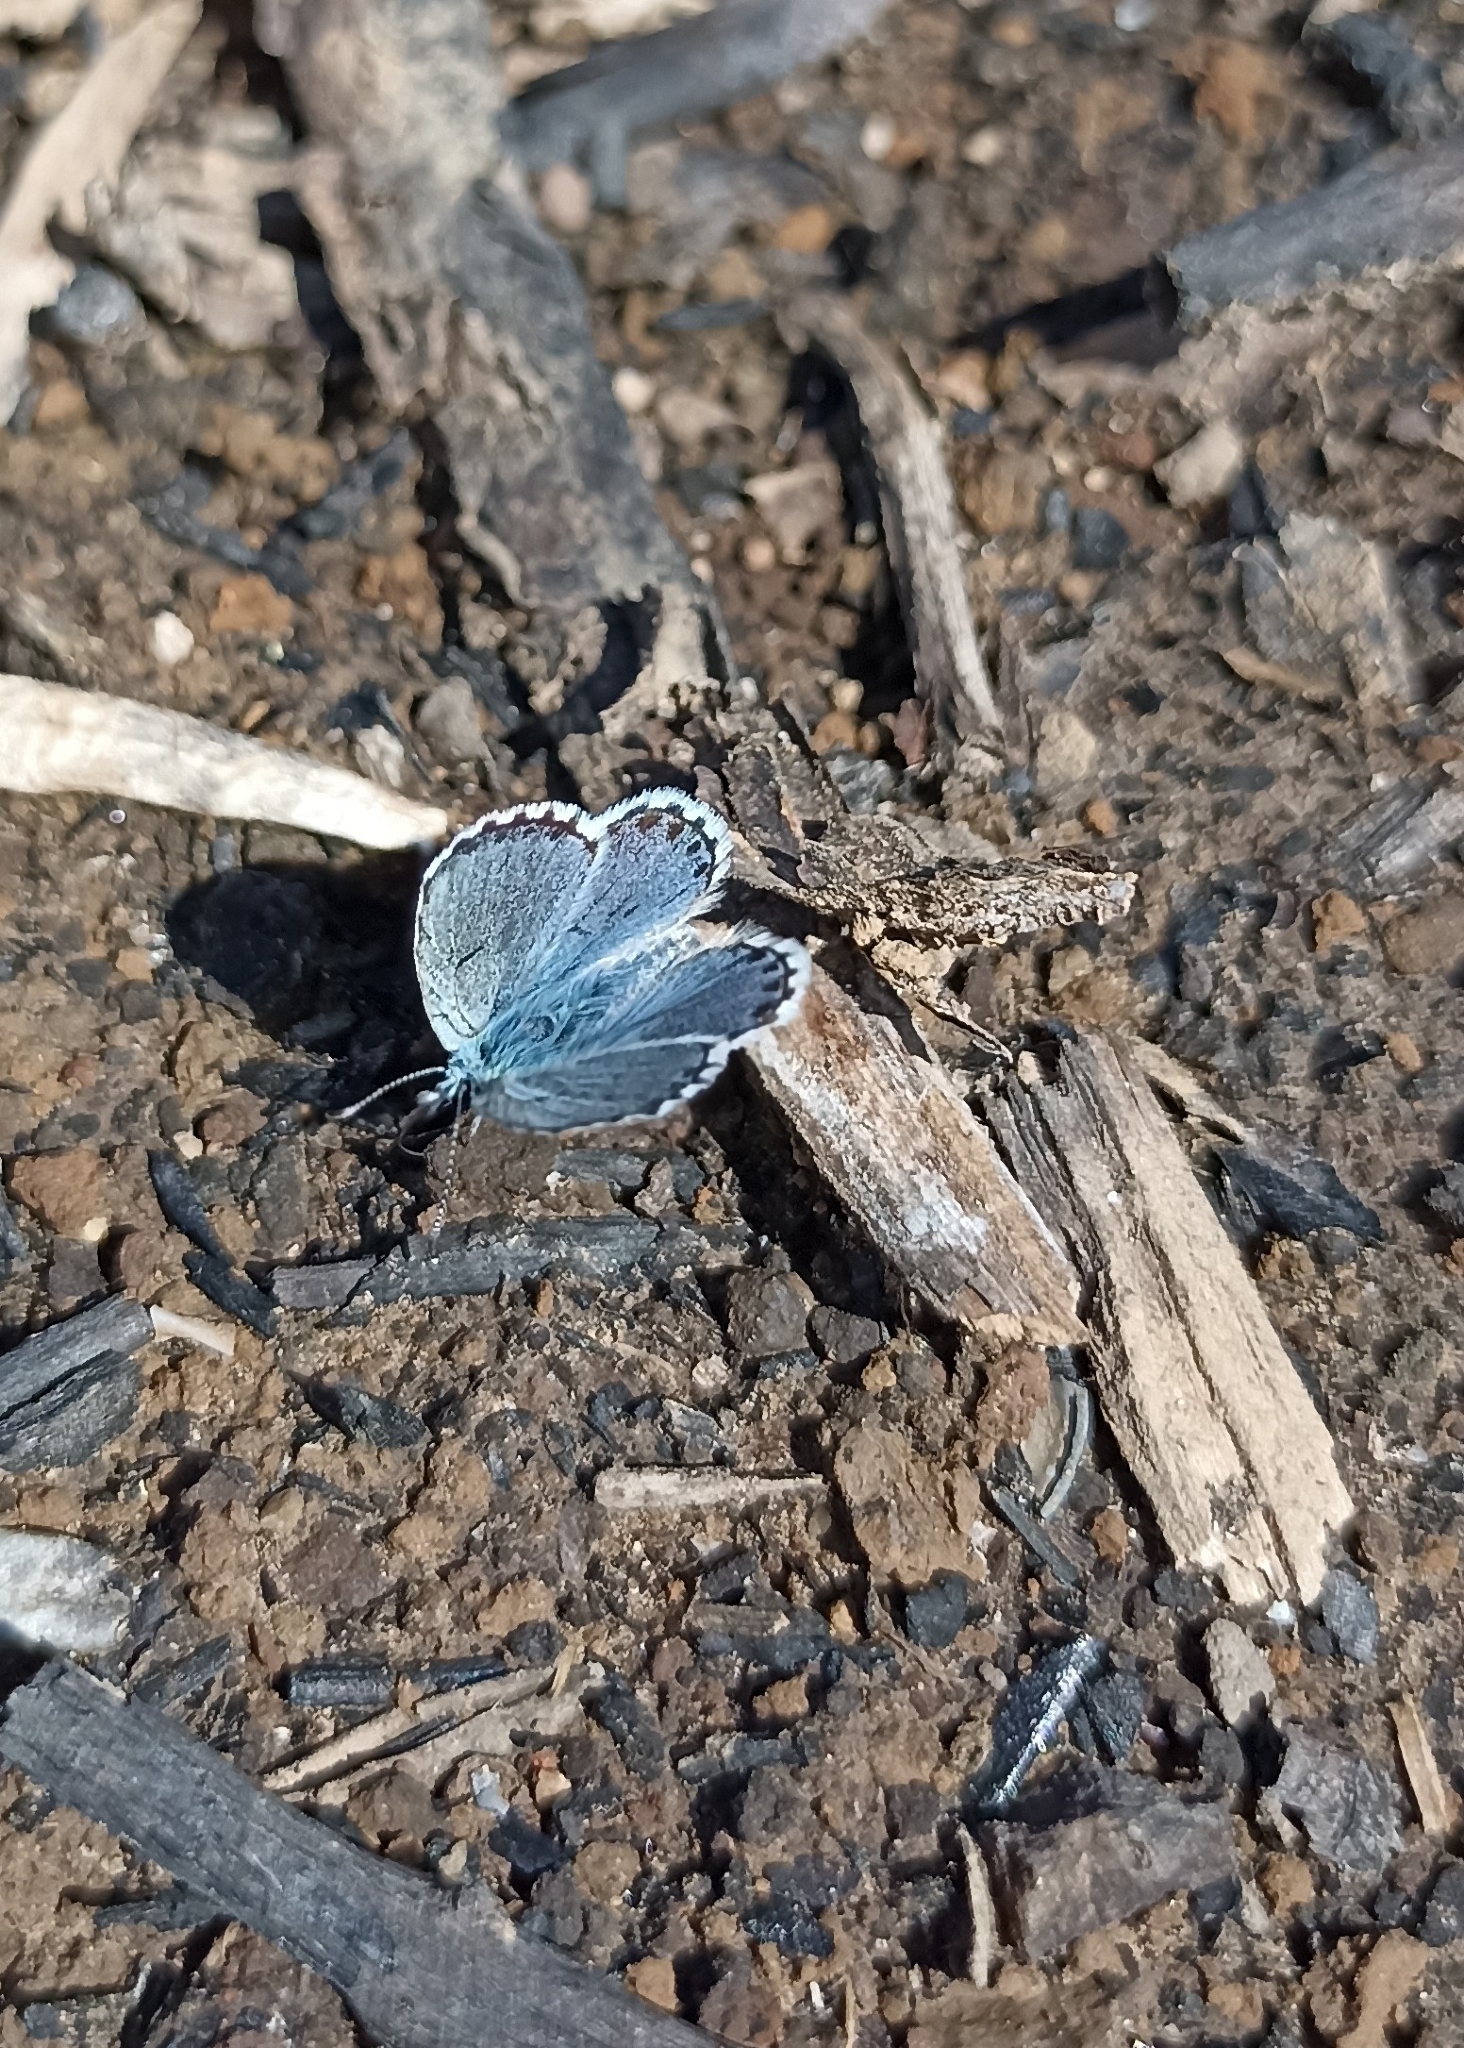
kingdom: Animalia
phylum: Arthropoda
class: Insecta
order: Lepidoptera
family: Lycaenidae
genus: Pseudophilotes
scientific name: Pseudophilotes baton
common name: Baton blue
